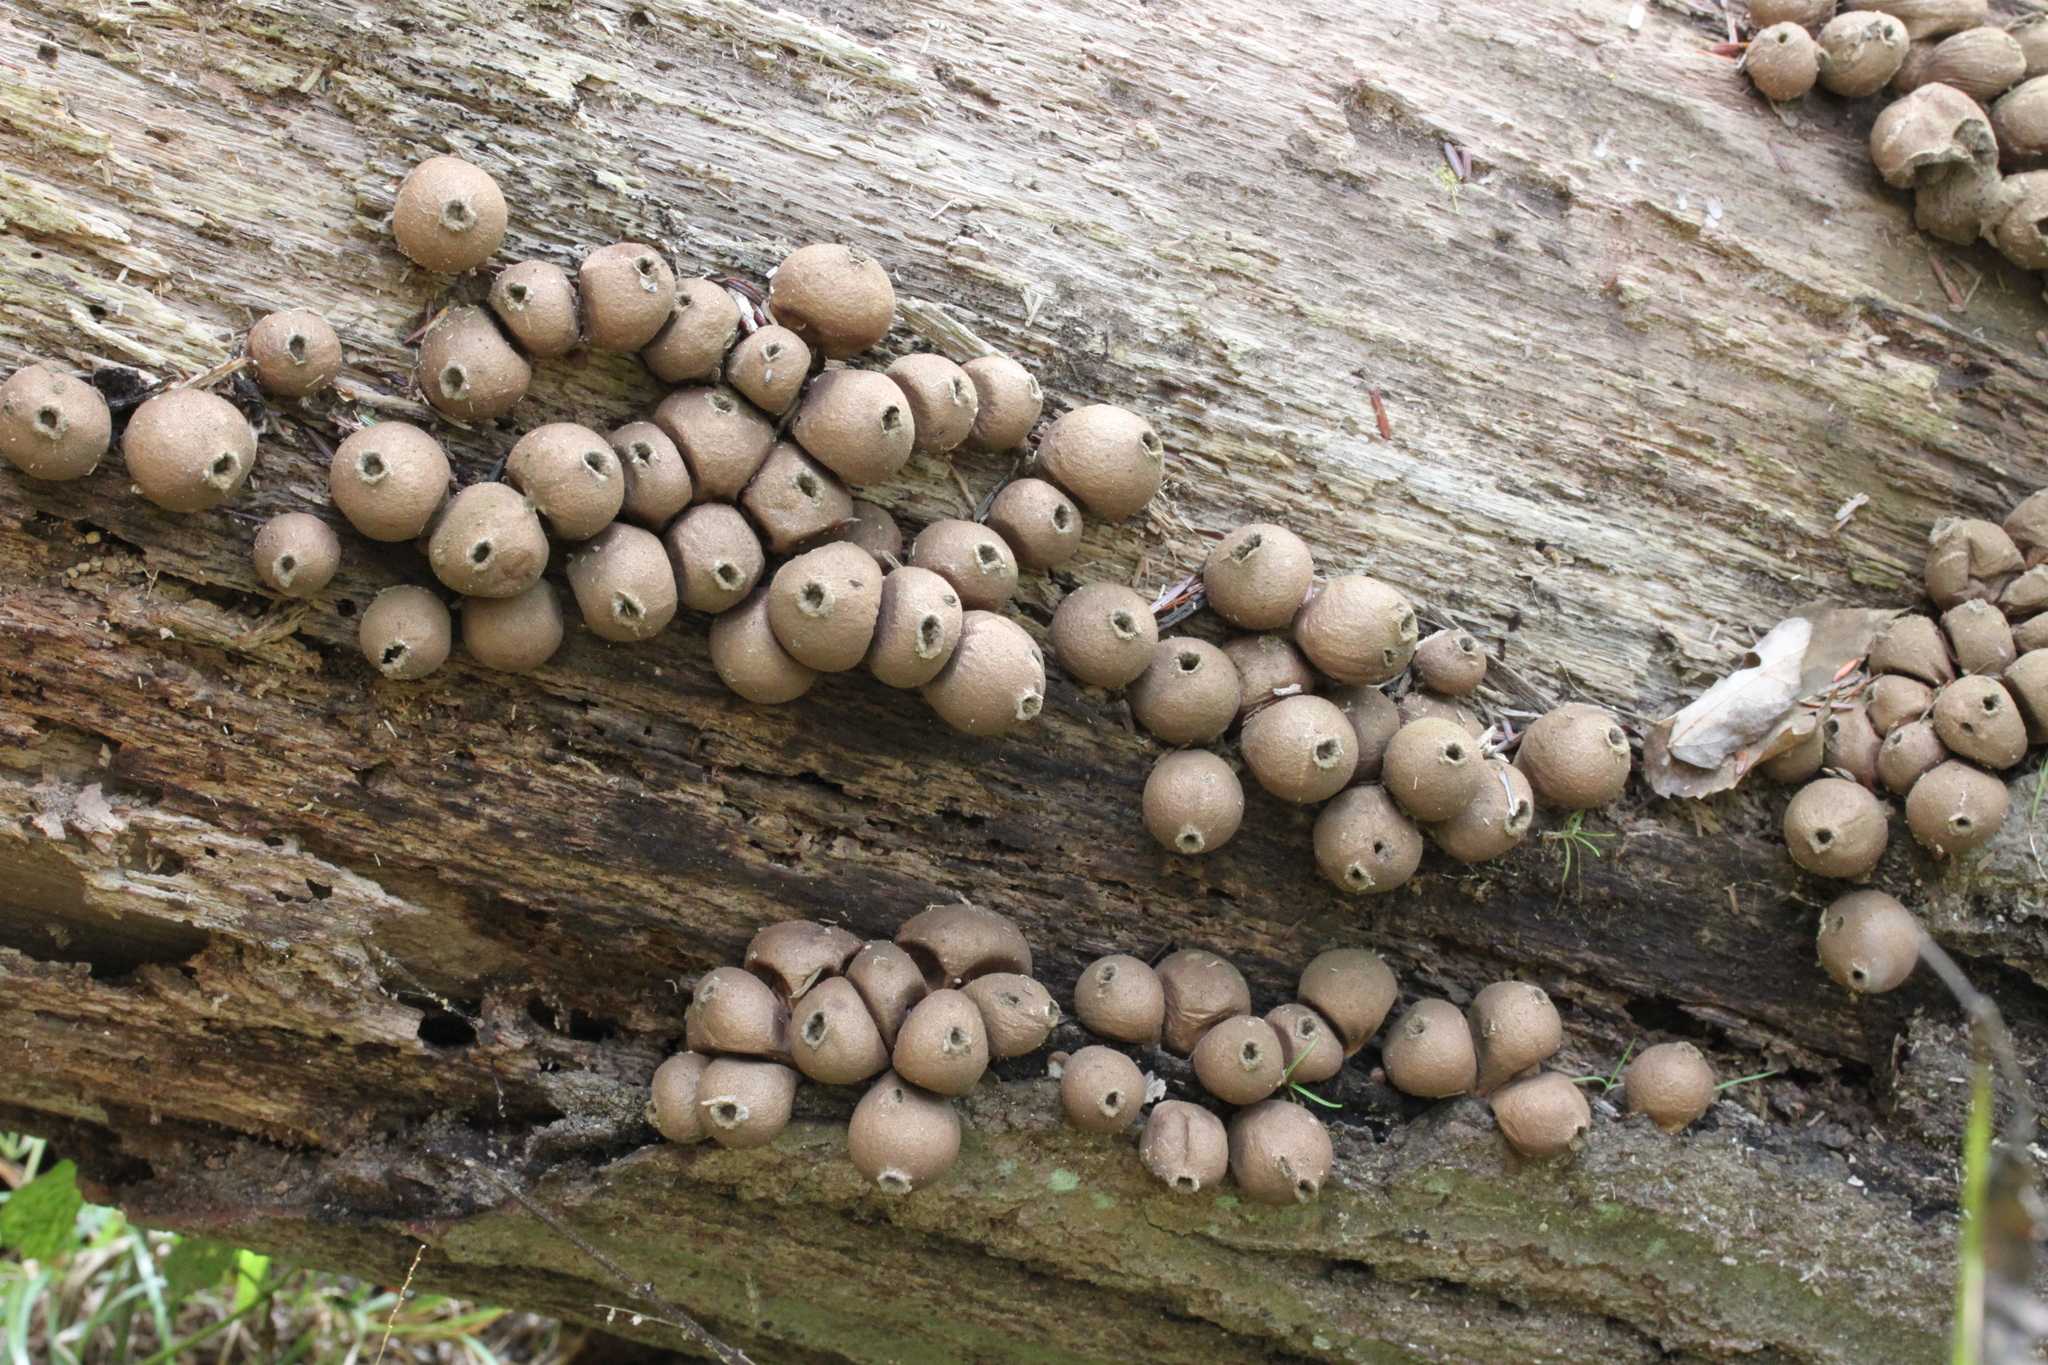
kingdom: Fungi
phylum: Basidiomycota
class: Agaricomycetes
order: Agaricales
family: Lycoperdaceae
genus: Apioperdon
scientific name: Apioperdon pyriforme
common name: Pear-shaped puffball
